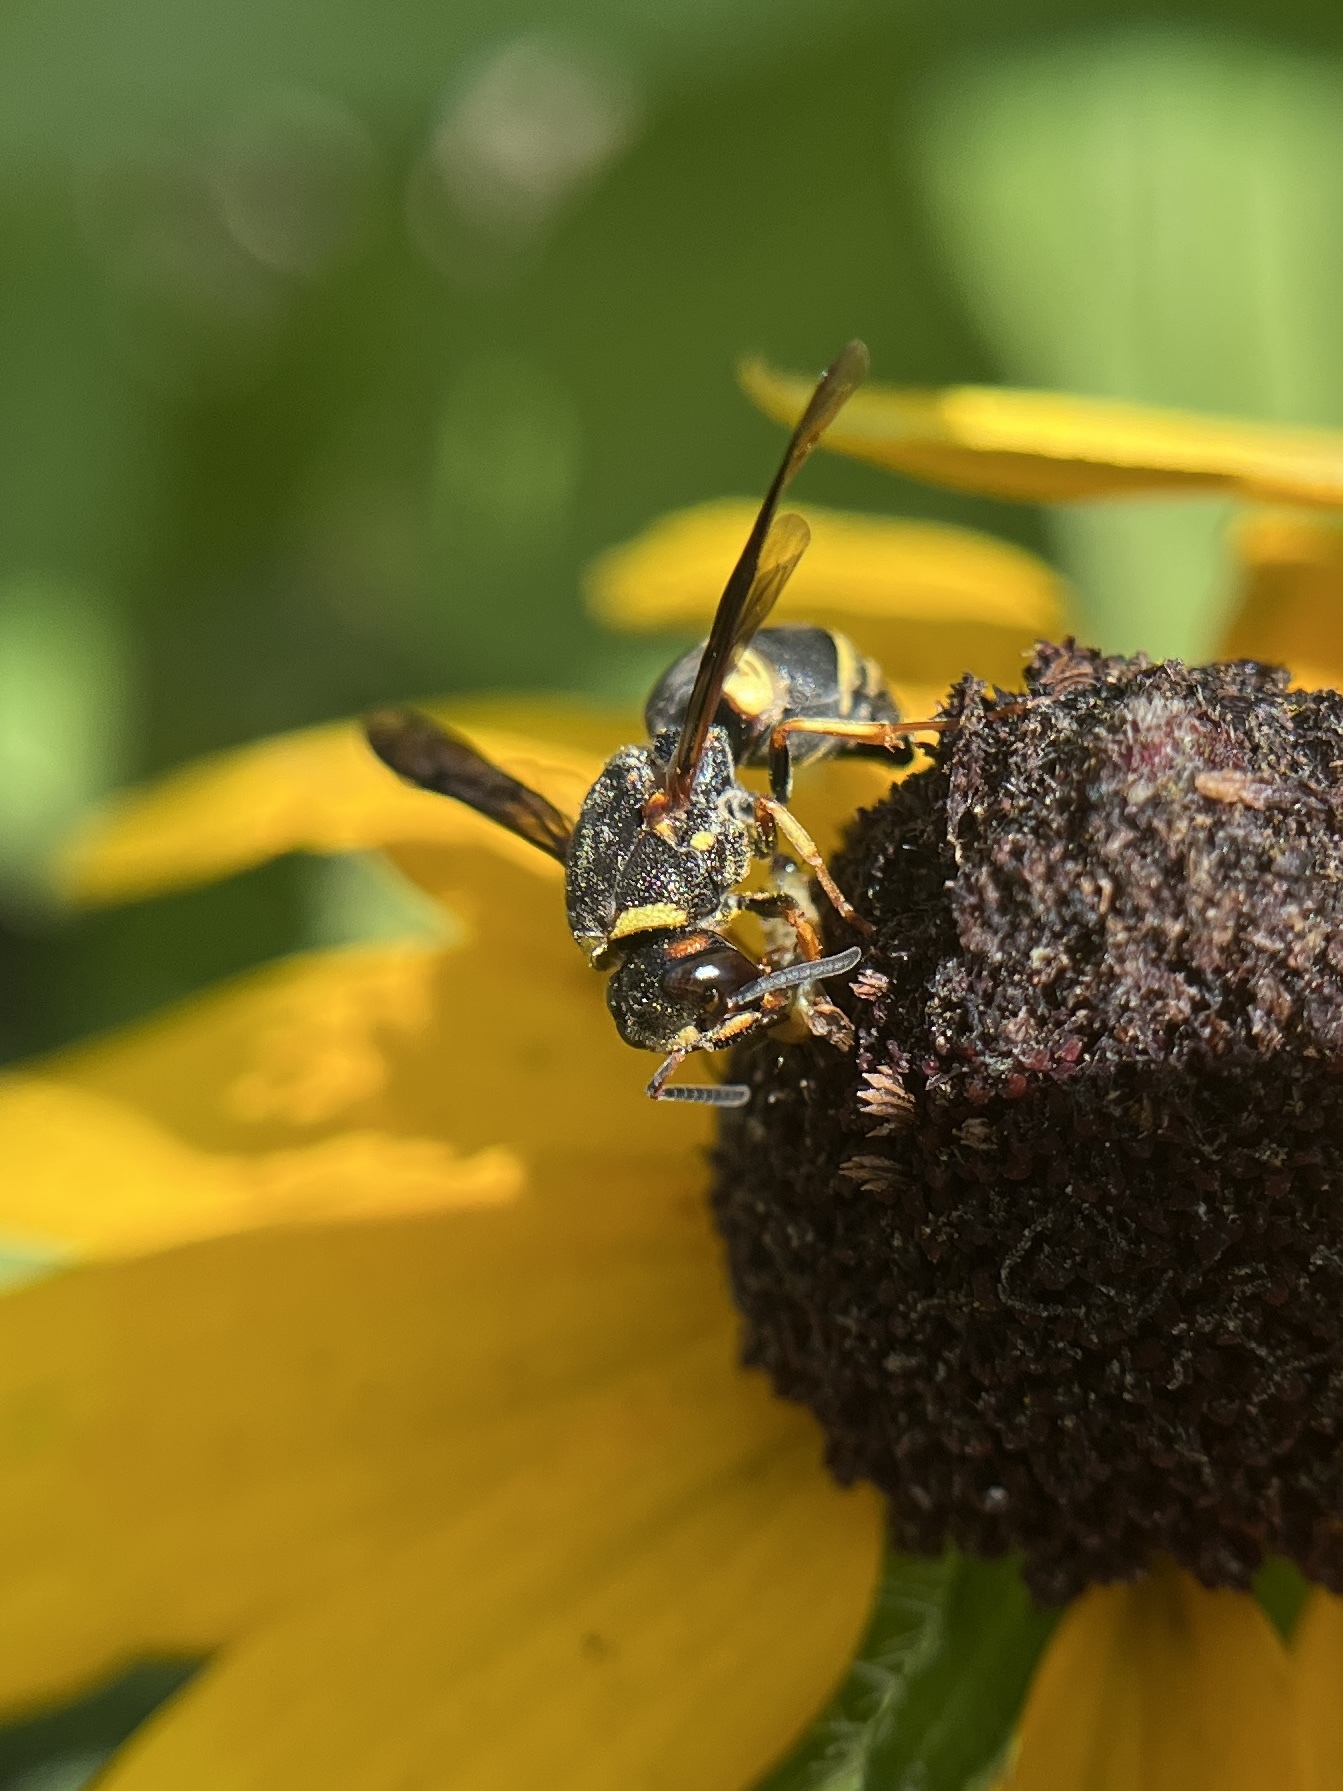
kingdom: Animalia
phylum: Arthropoda
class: Insecta
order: Hymenoptera
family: Eumenidae
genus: Euodynerus
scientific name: Euodynerus hidalgo
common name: Wasp
